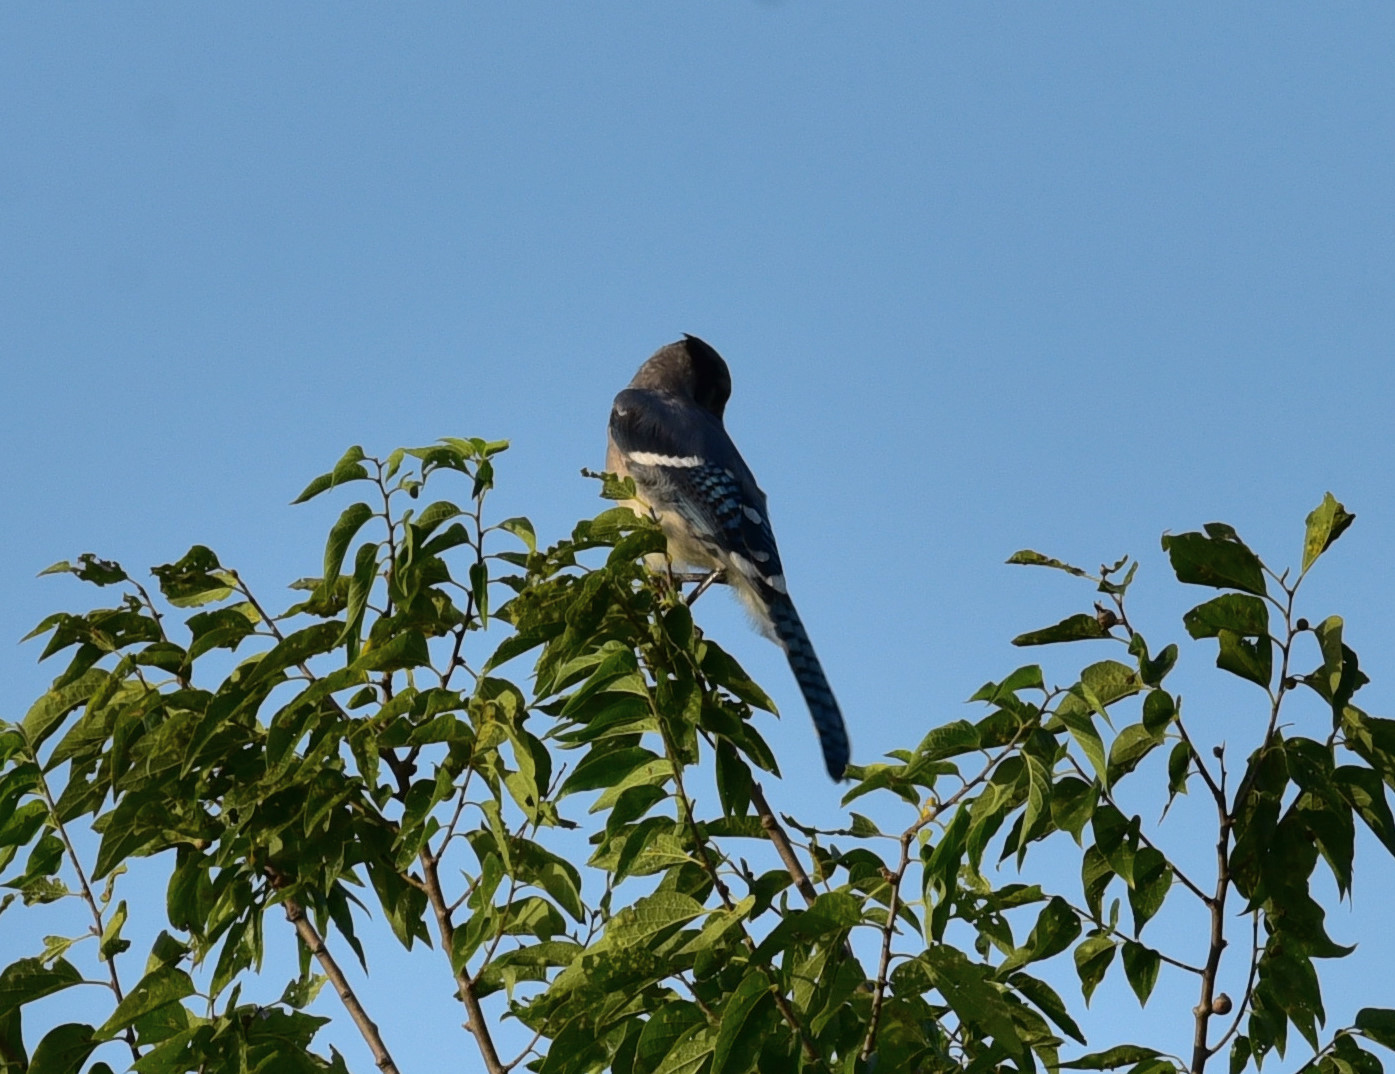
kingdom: Animalia
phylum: Chordata
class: Aves
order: Passeriformes
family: Corvidae
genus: Cyanocitta
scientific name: Cyanocitta cristata
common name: Blue jay
